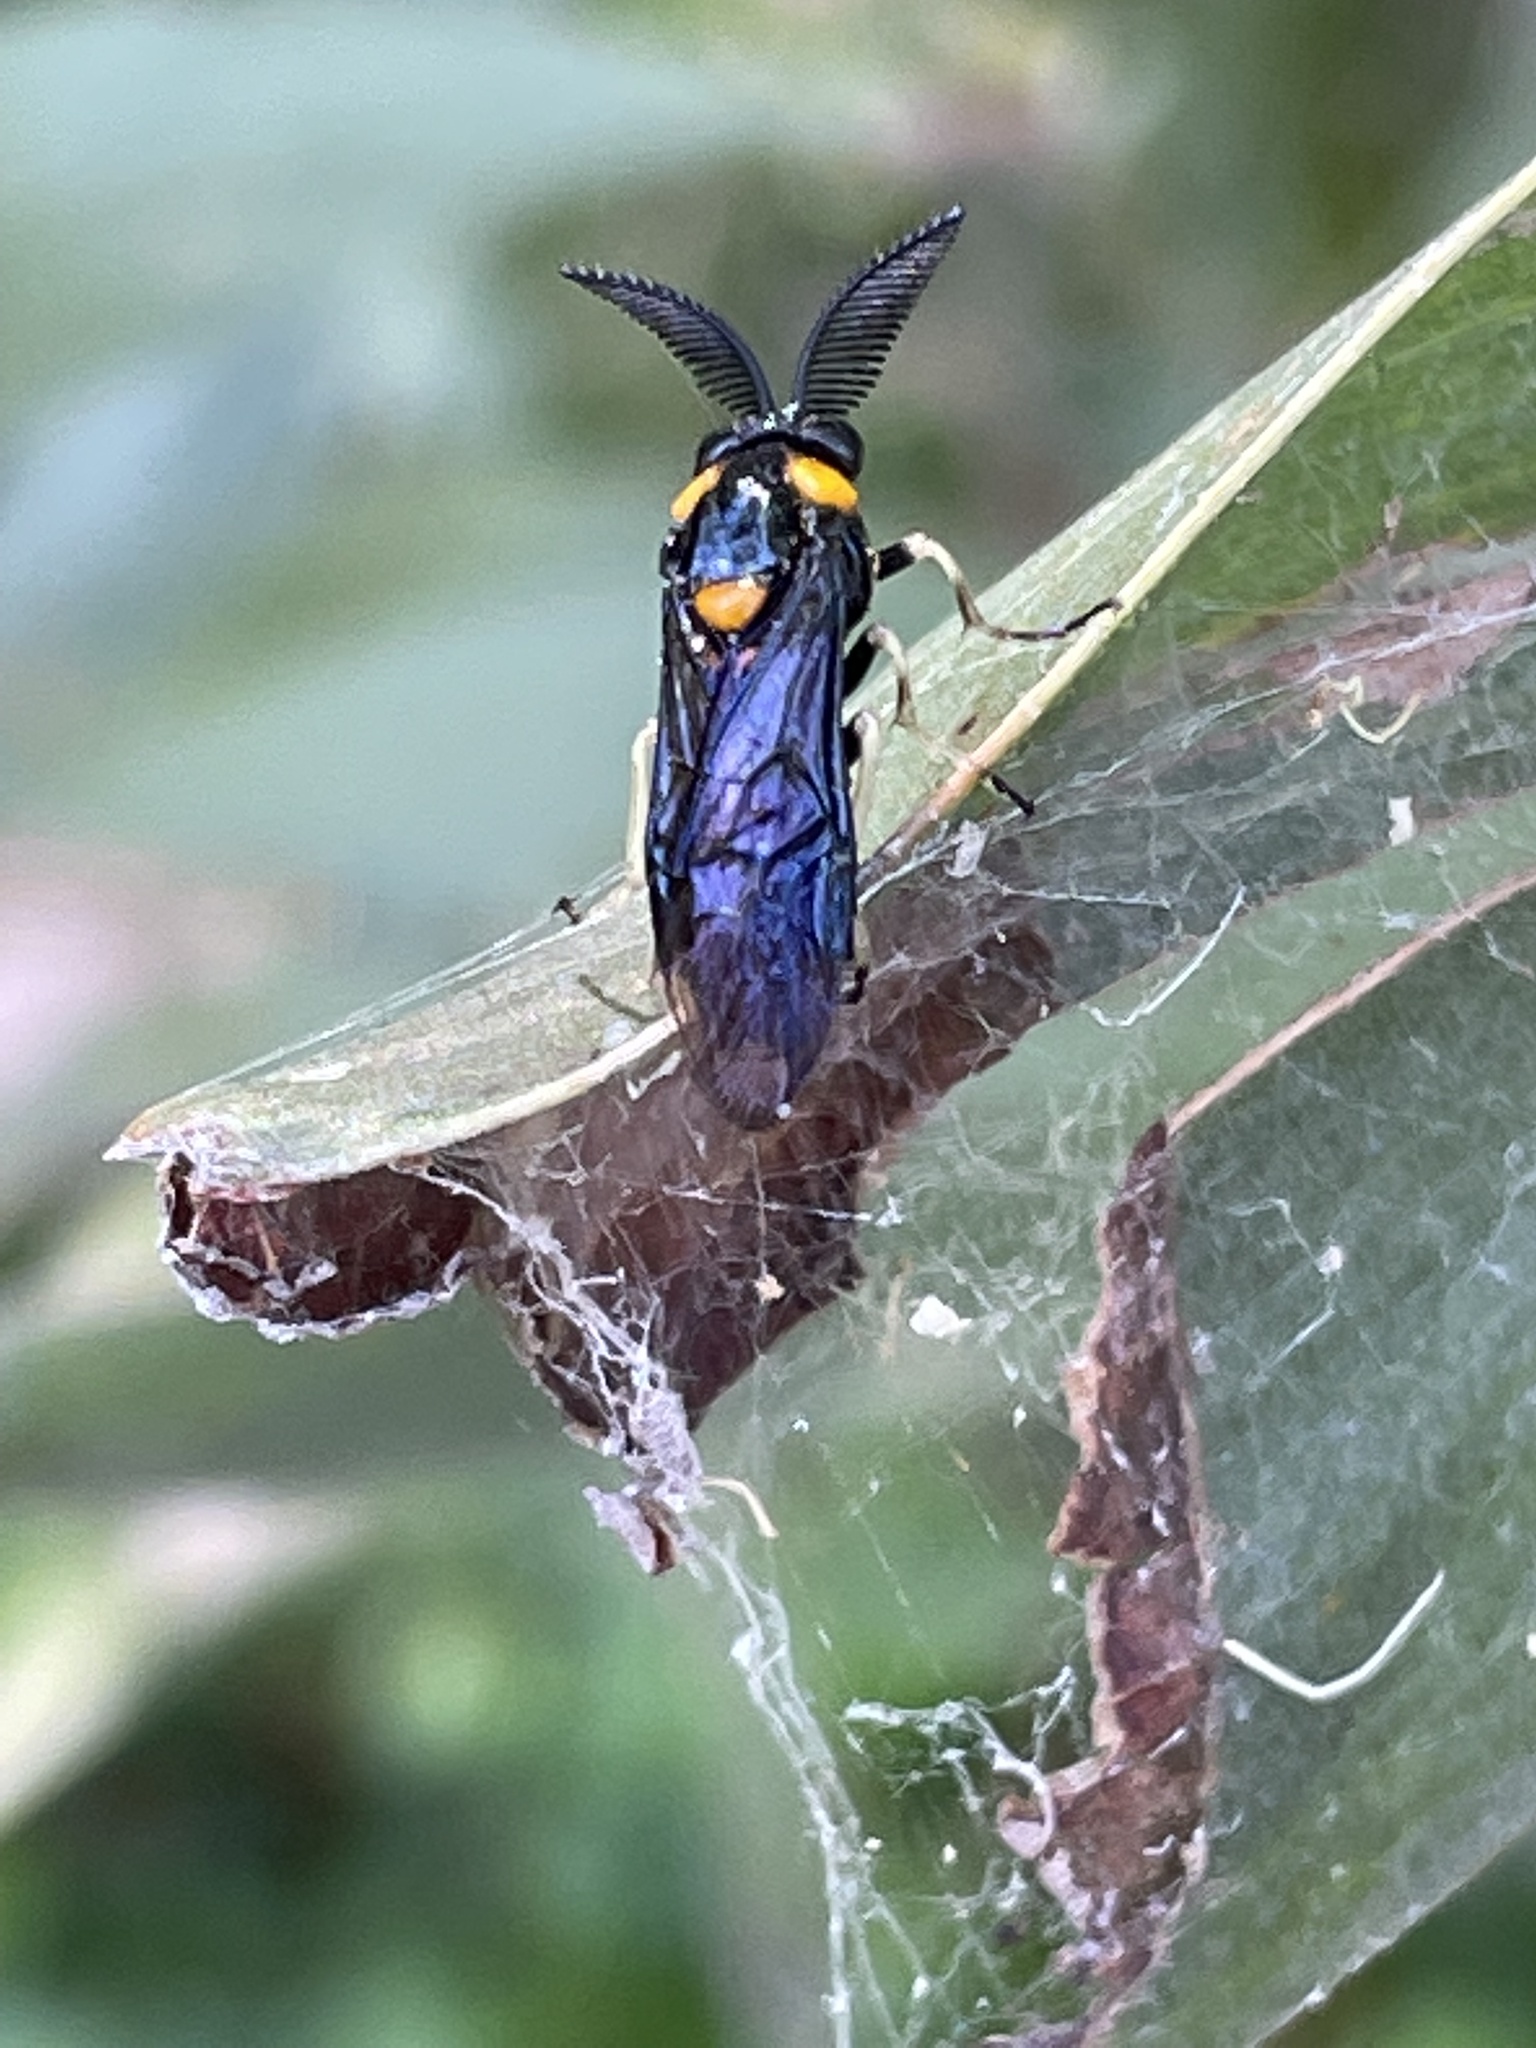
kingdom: Animalia
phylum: Arthropoda
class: Insecta
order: Hymenoptera
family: Pergidae
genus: Lophyrotoma
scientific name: Lophyrotoma
